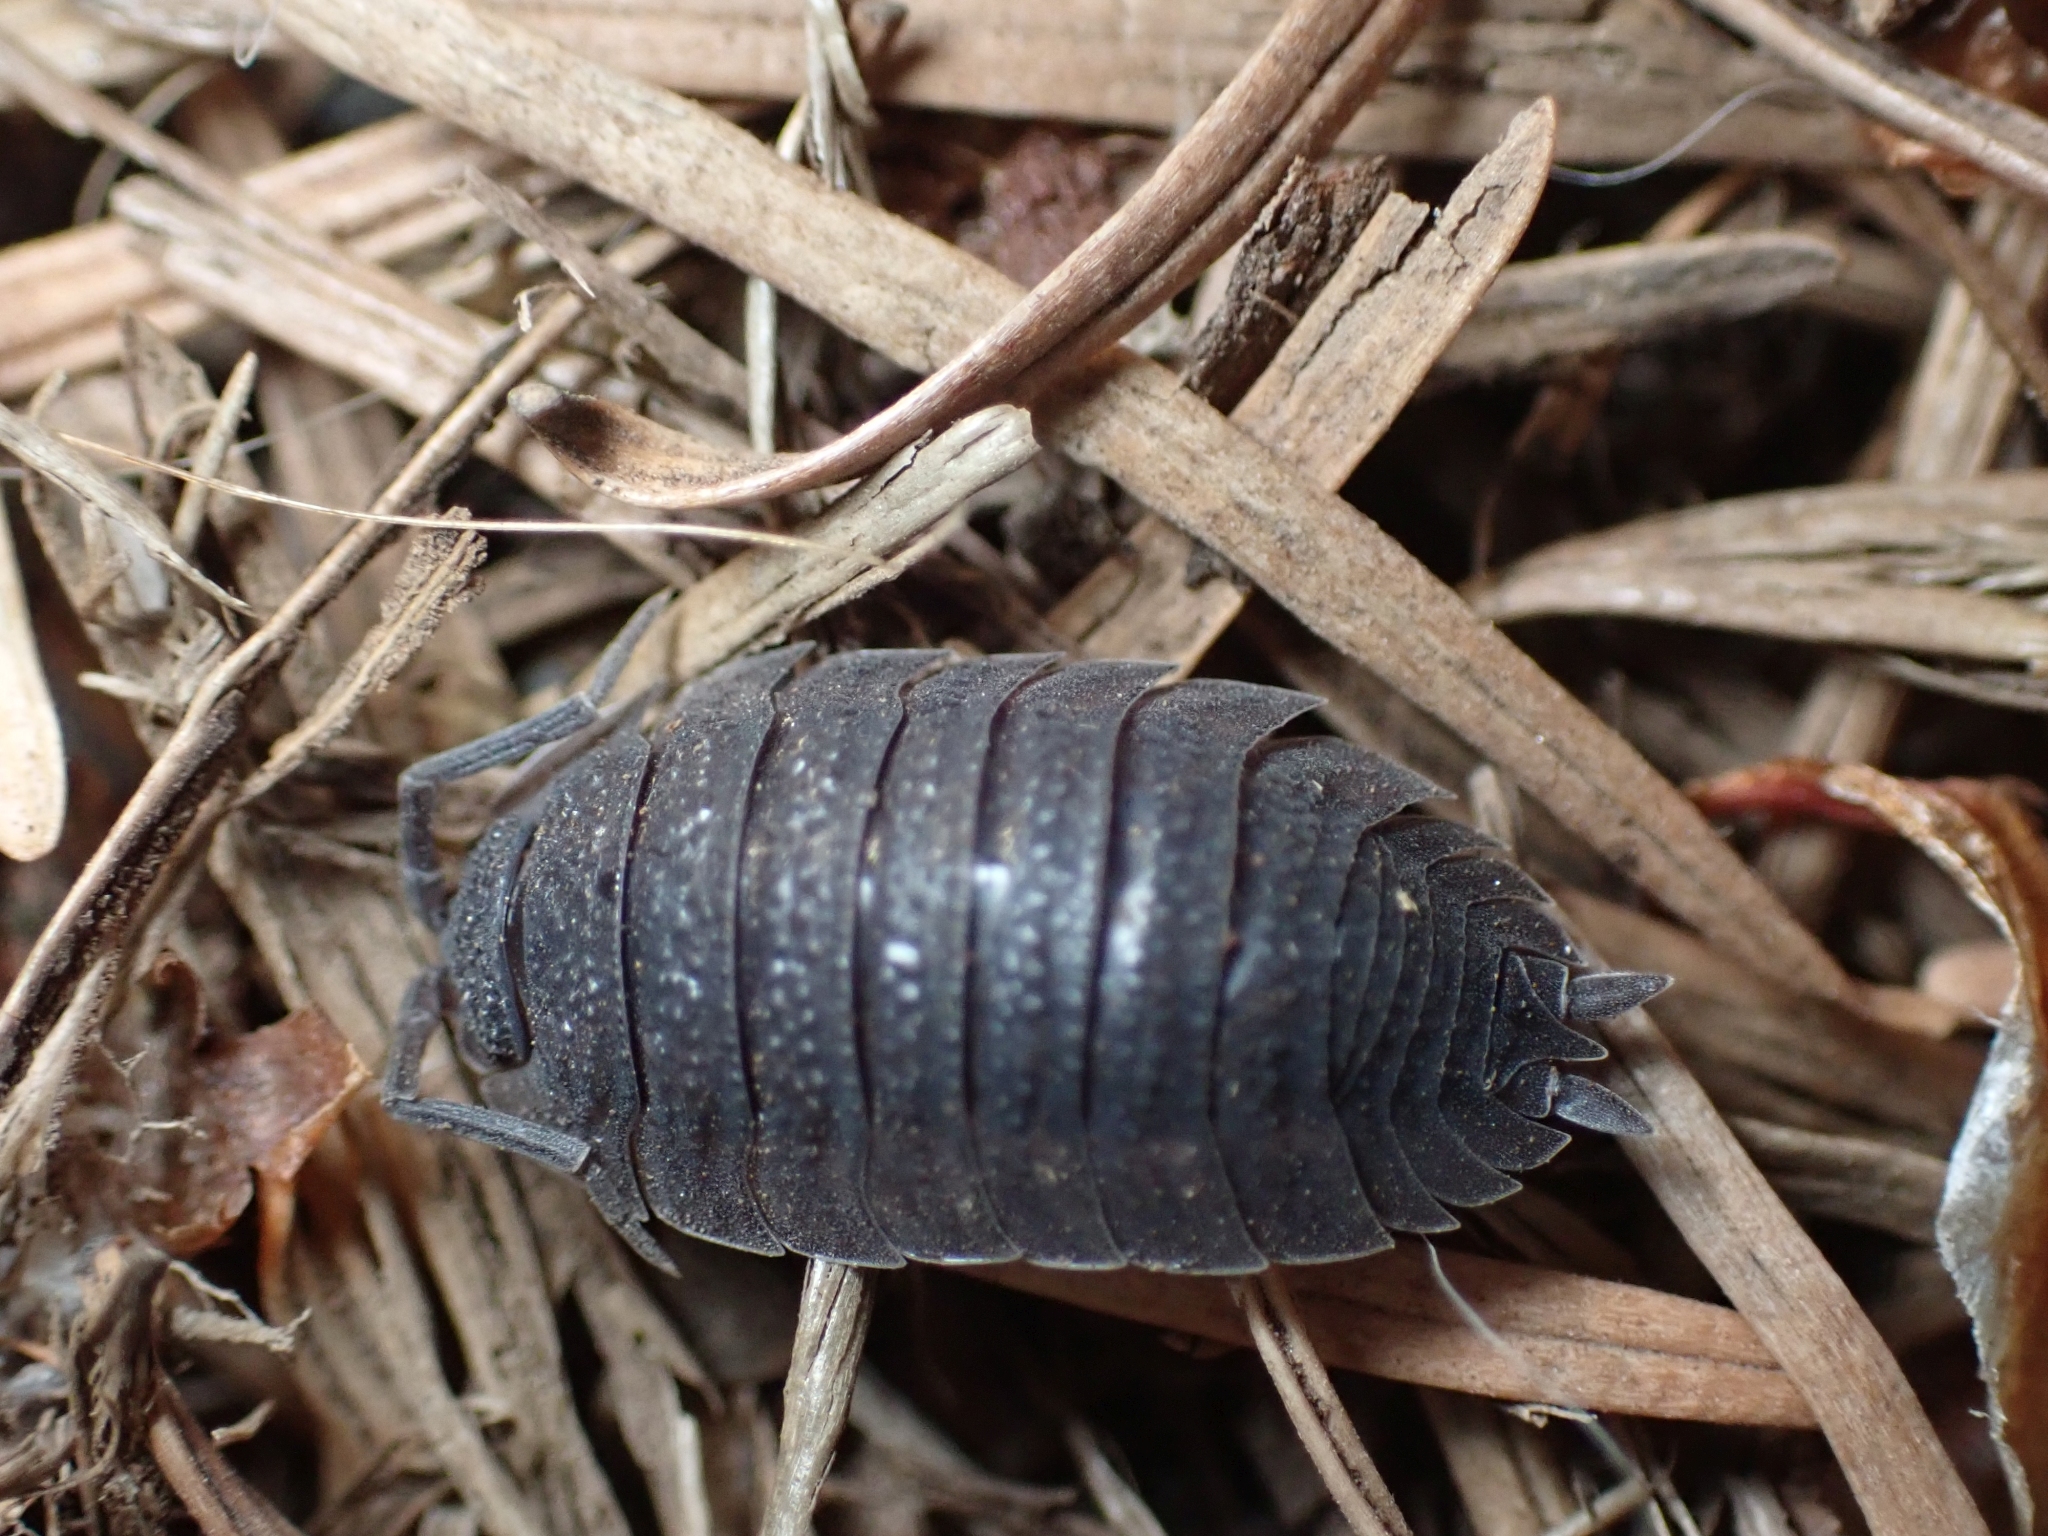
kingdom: Animalia
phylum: Arthropoda
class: Malacostraca
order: Isopoda
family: Porcellionidae
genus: Porcellio
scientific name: Porcellio scaber
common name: Common rough woodlouse
